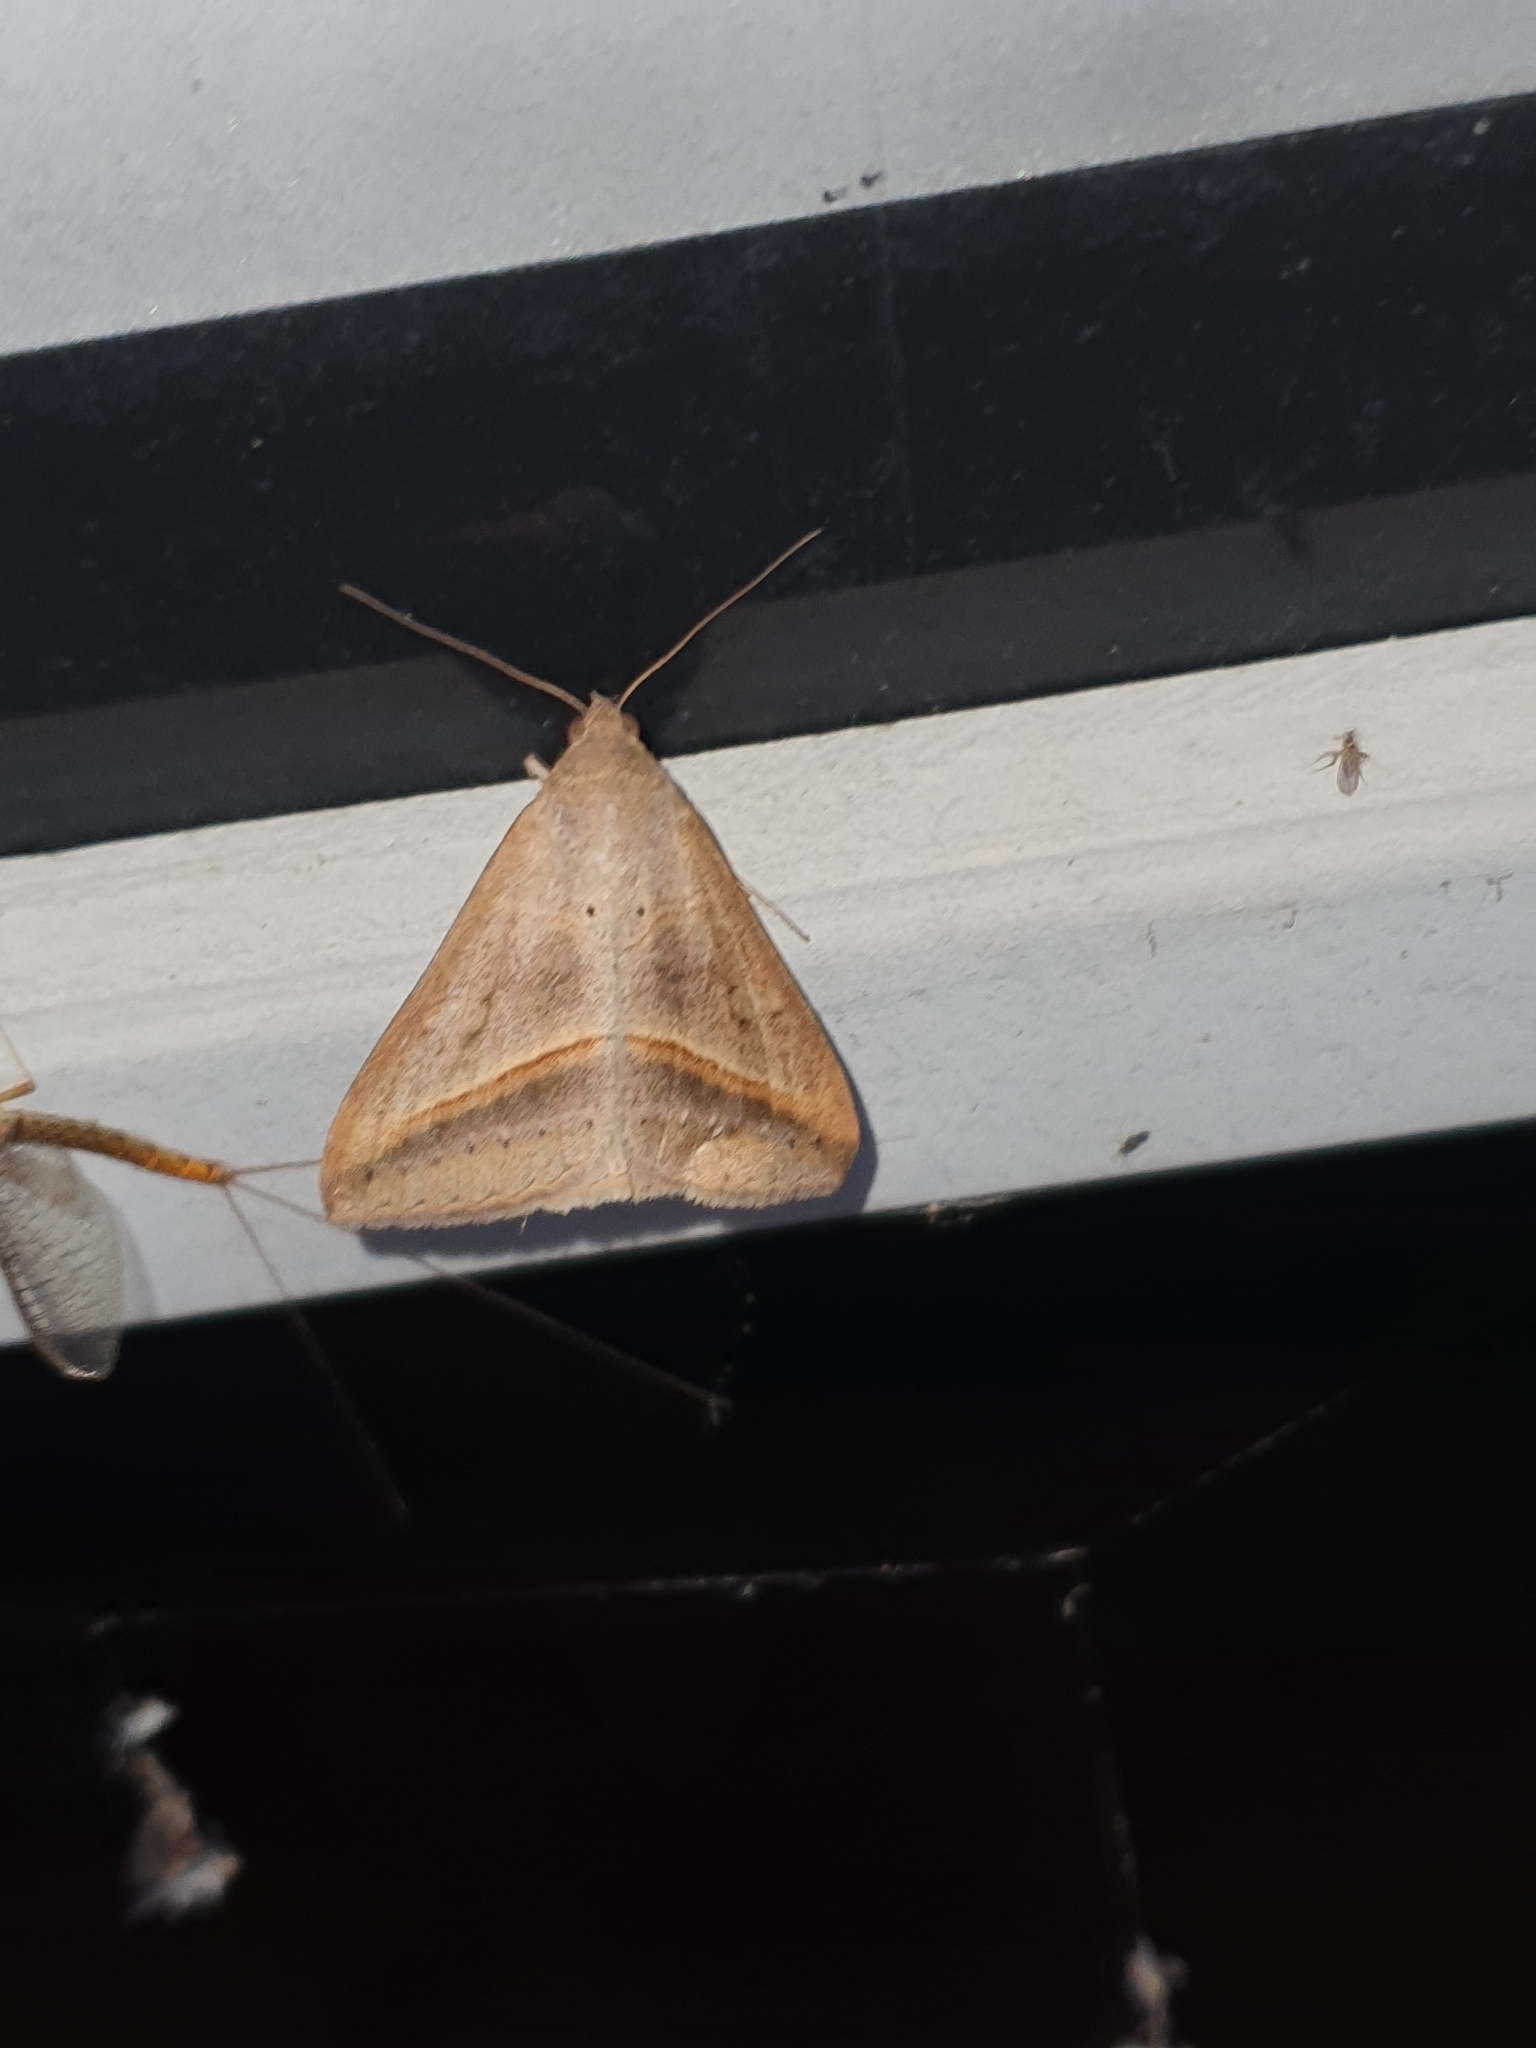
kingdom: Animalia
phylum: Arthropoda
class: Insecta
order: Lepidoptera
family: Erebidae
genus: Mocis
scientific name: Mocis frugalis
